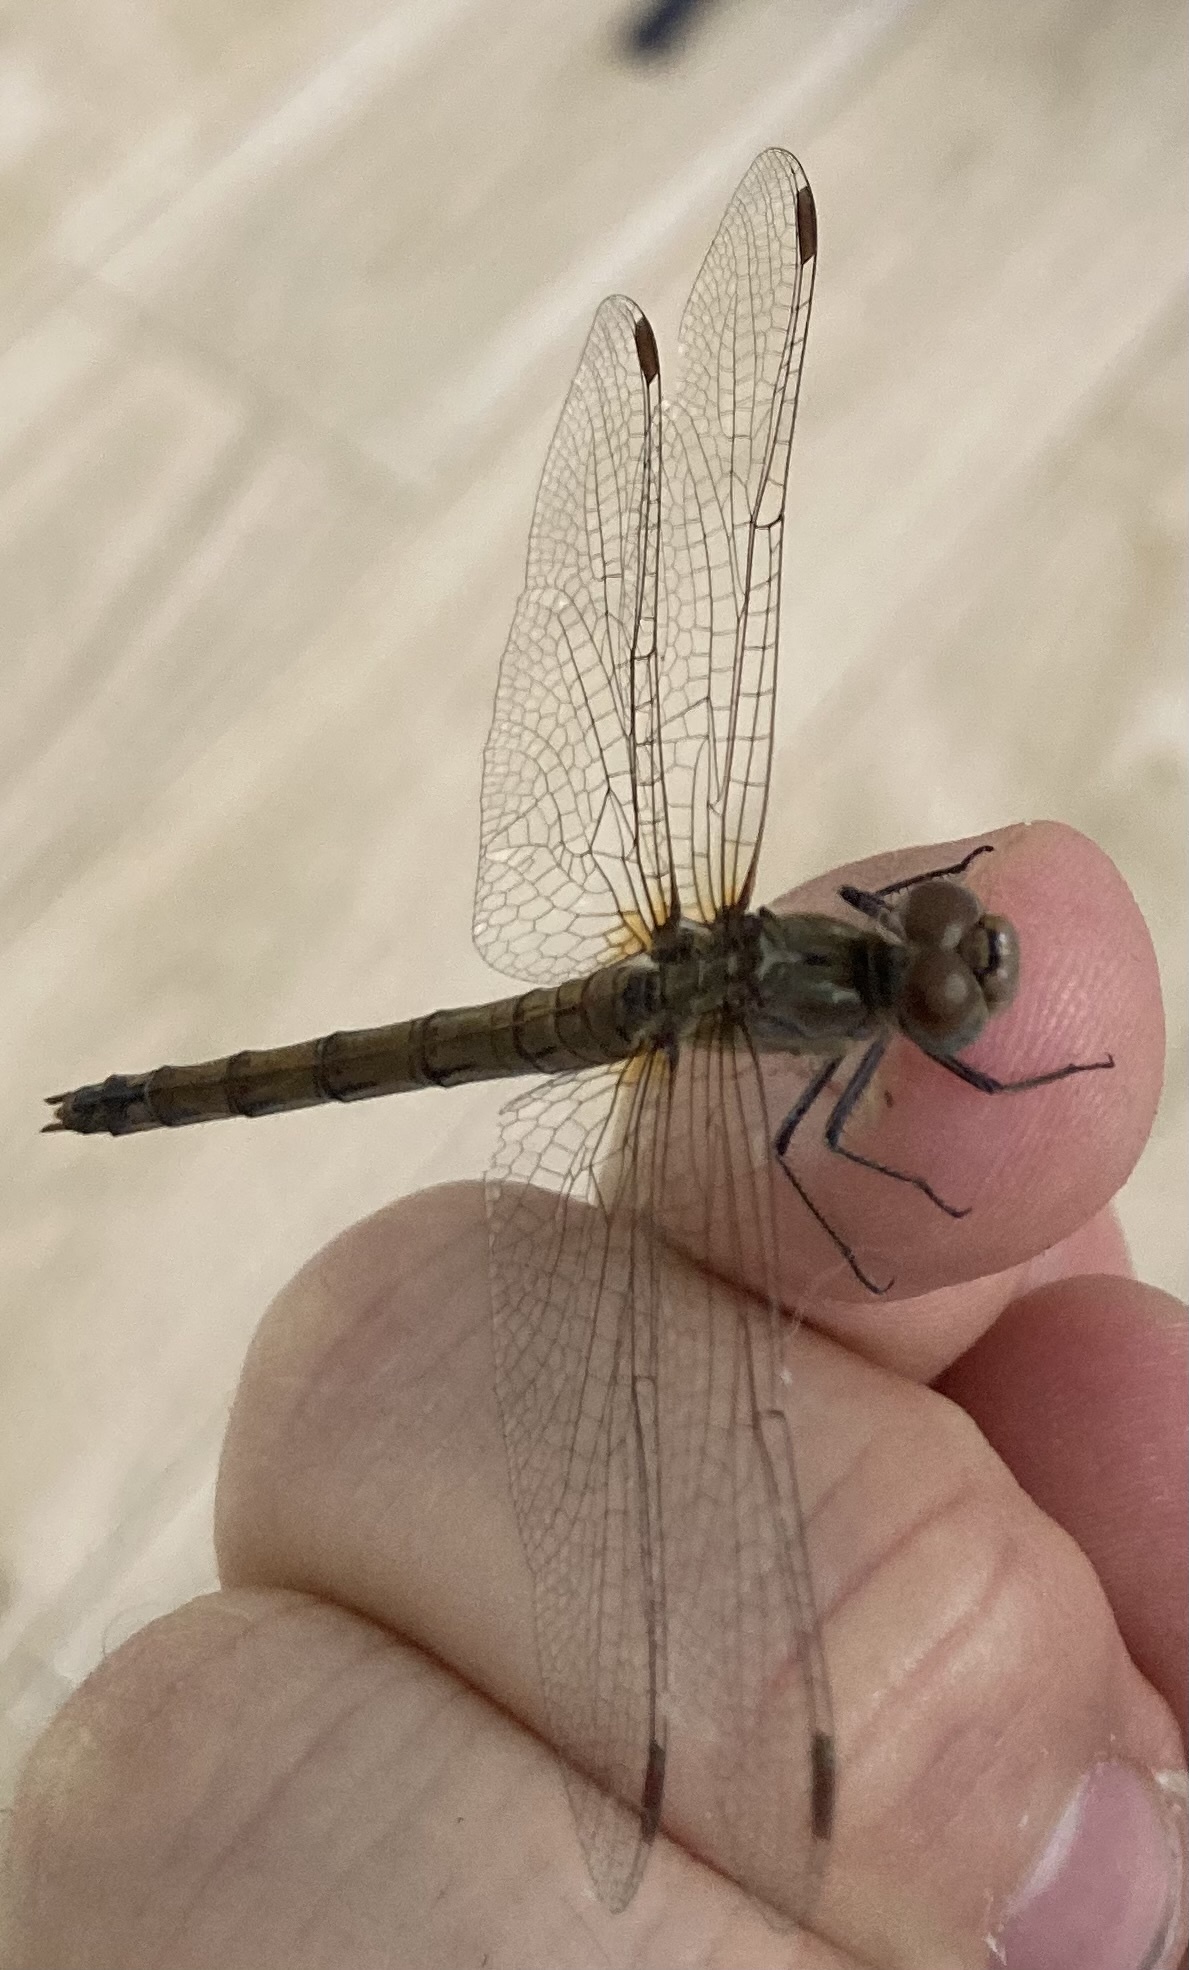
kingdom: Animalia
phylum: Arthropoda
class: Insecta
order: Odonata
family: Libellulidae
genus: Sympetrum
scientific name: Sympetrum striolatum
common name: Common darter
